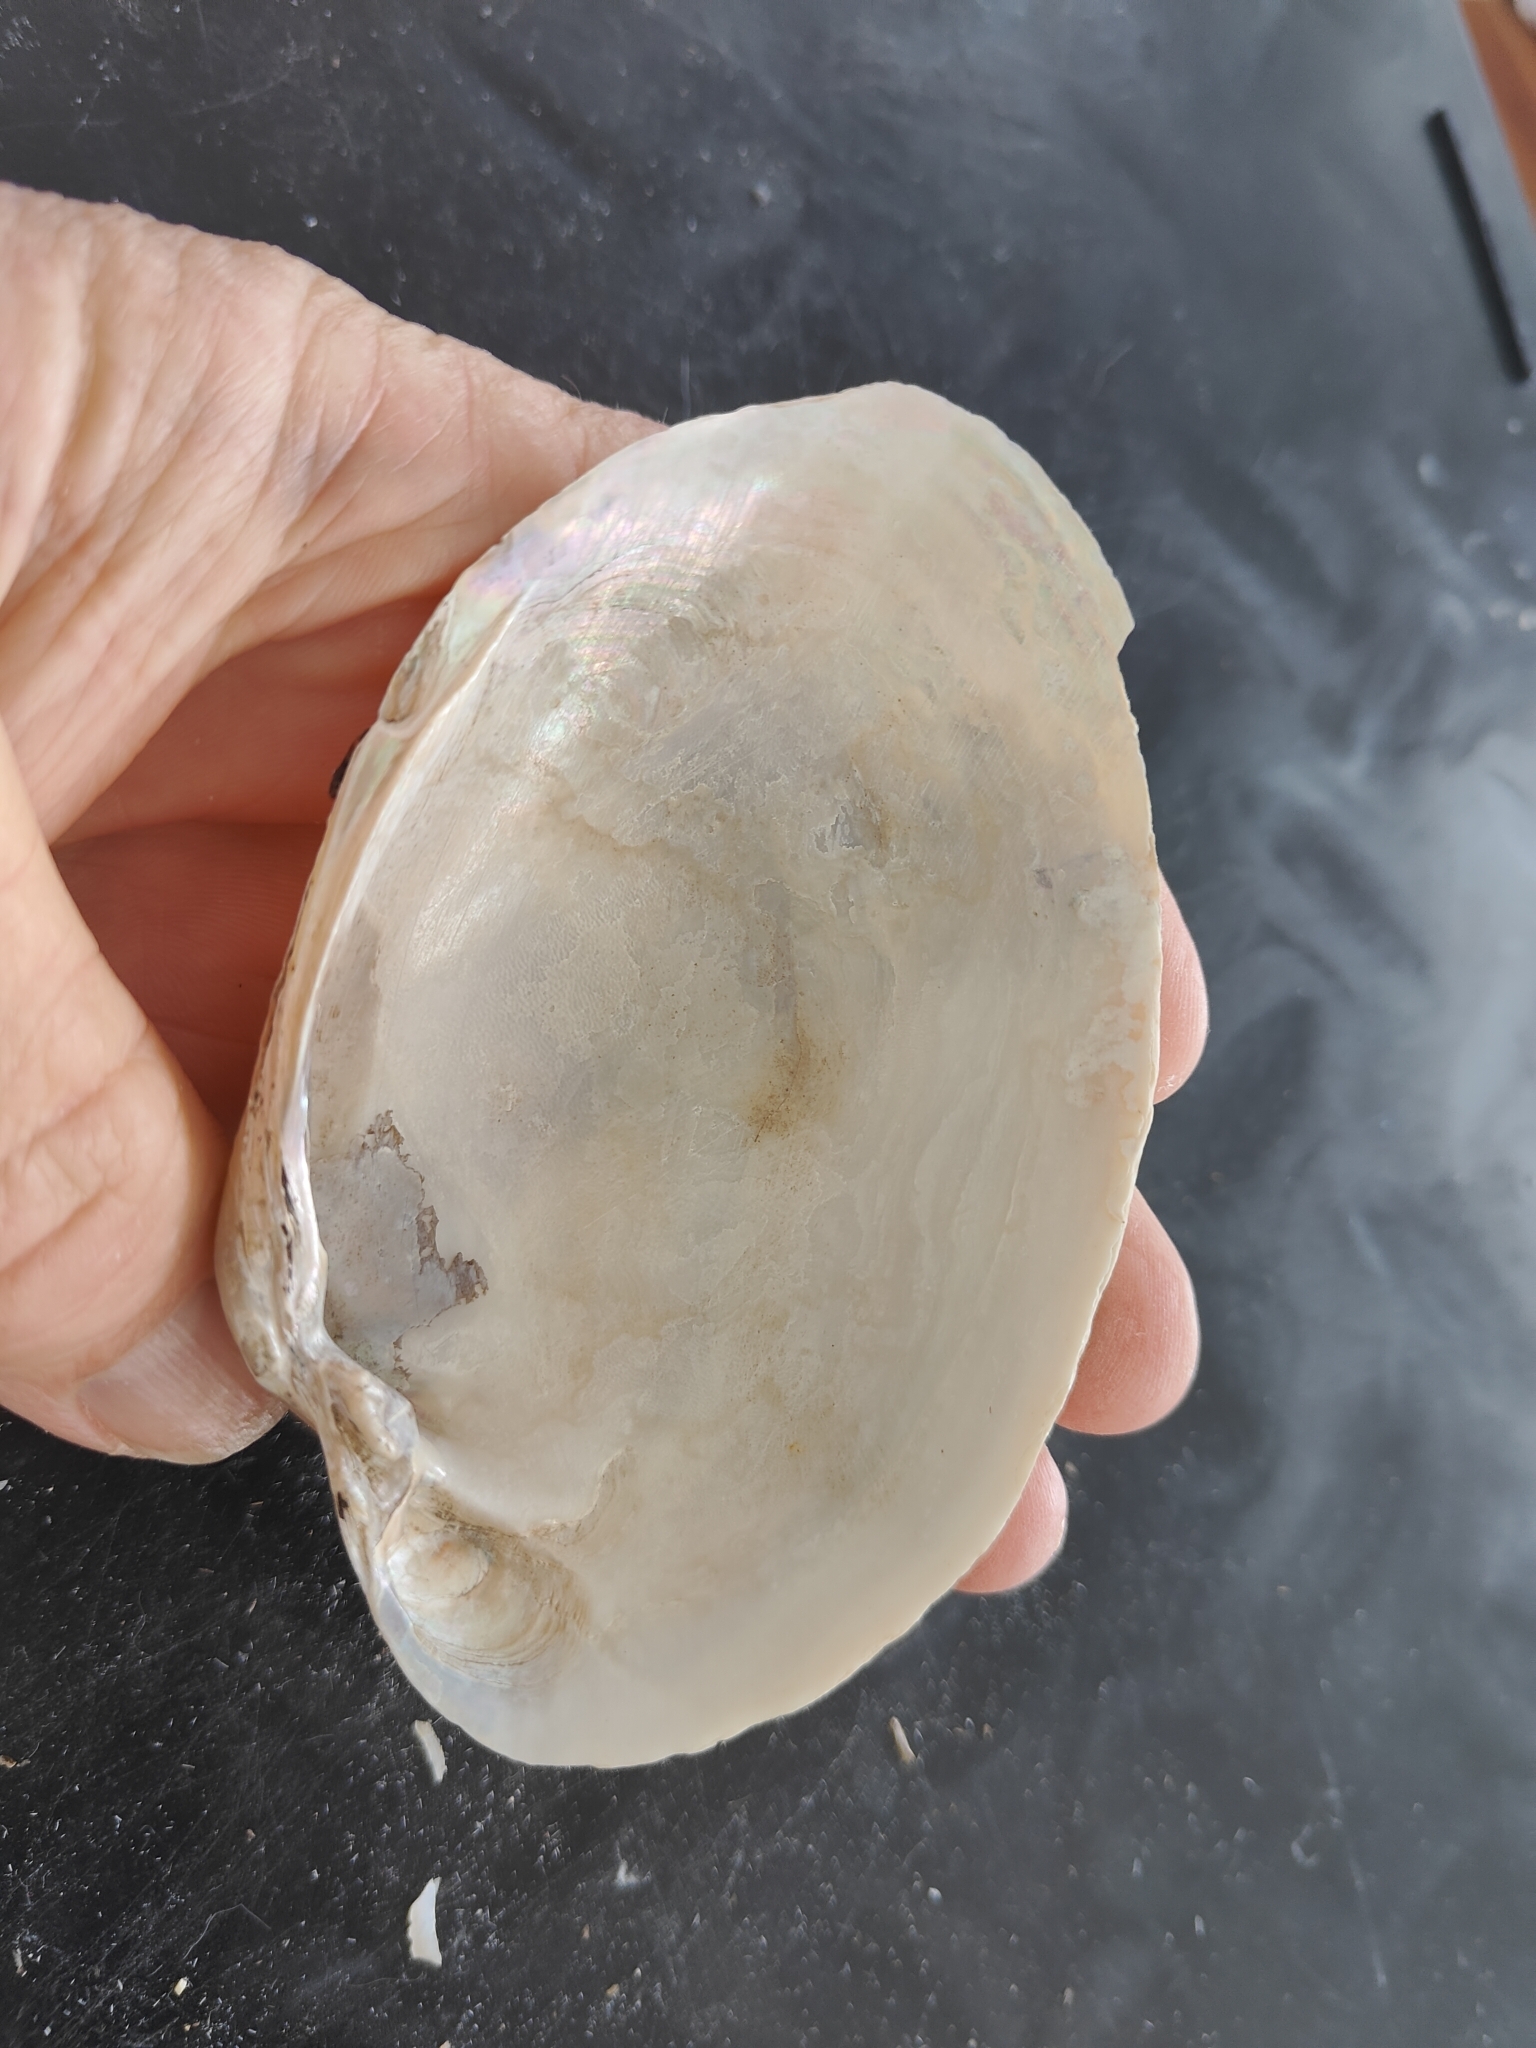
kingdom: Animalia
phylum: Mollusca
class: Bivalvia
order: Unionida
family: Unionidae
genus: Lampsilis
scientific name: Lampsilis cardium
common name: Plain pocketbook
